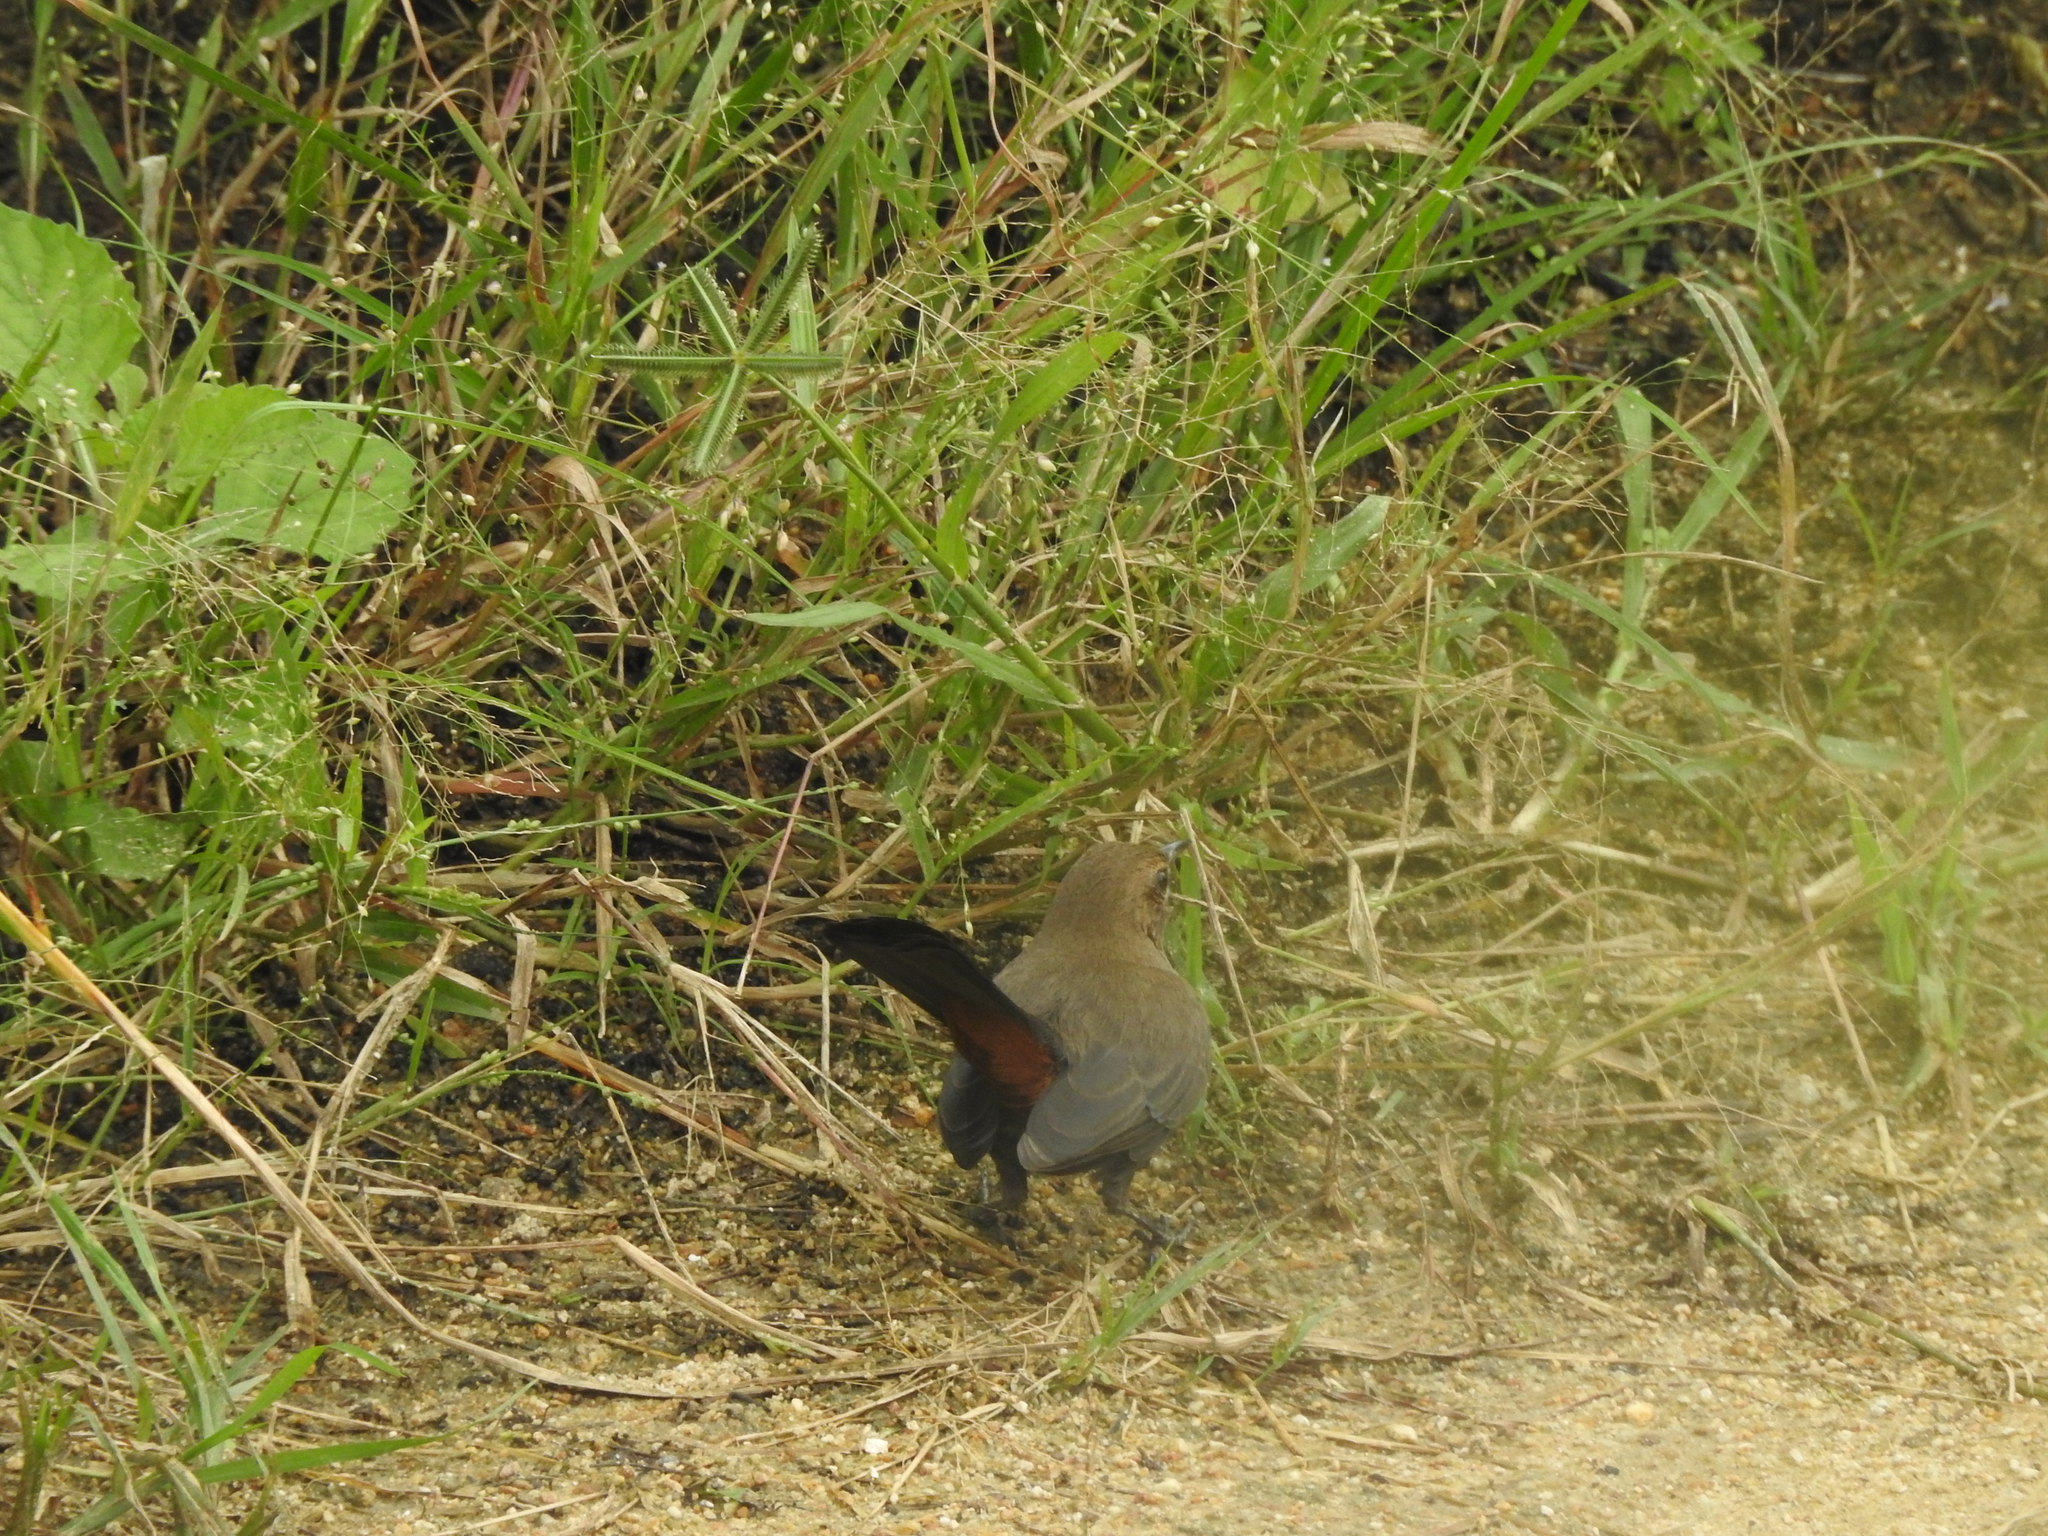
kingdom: Animalia
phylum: Chordata
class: Aves
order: Passeriformes
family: Muscicapidae
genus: Saxicoloides
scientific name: Saxicoloides fulicatus
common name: Indian robin
